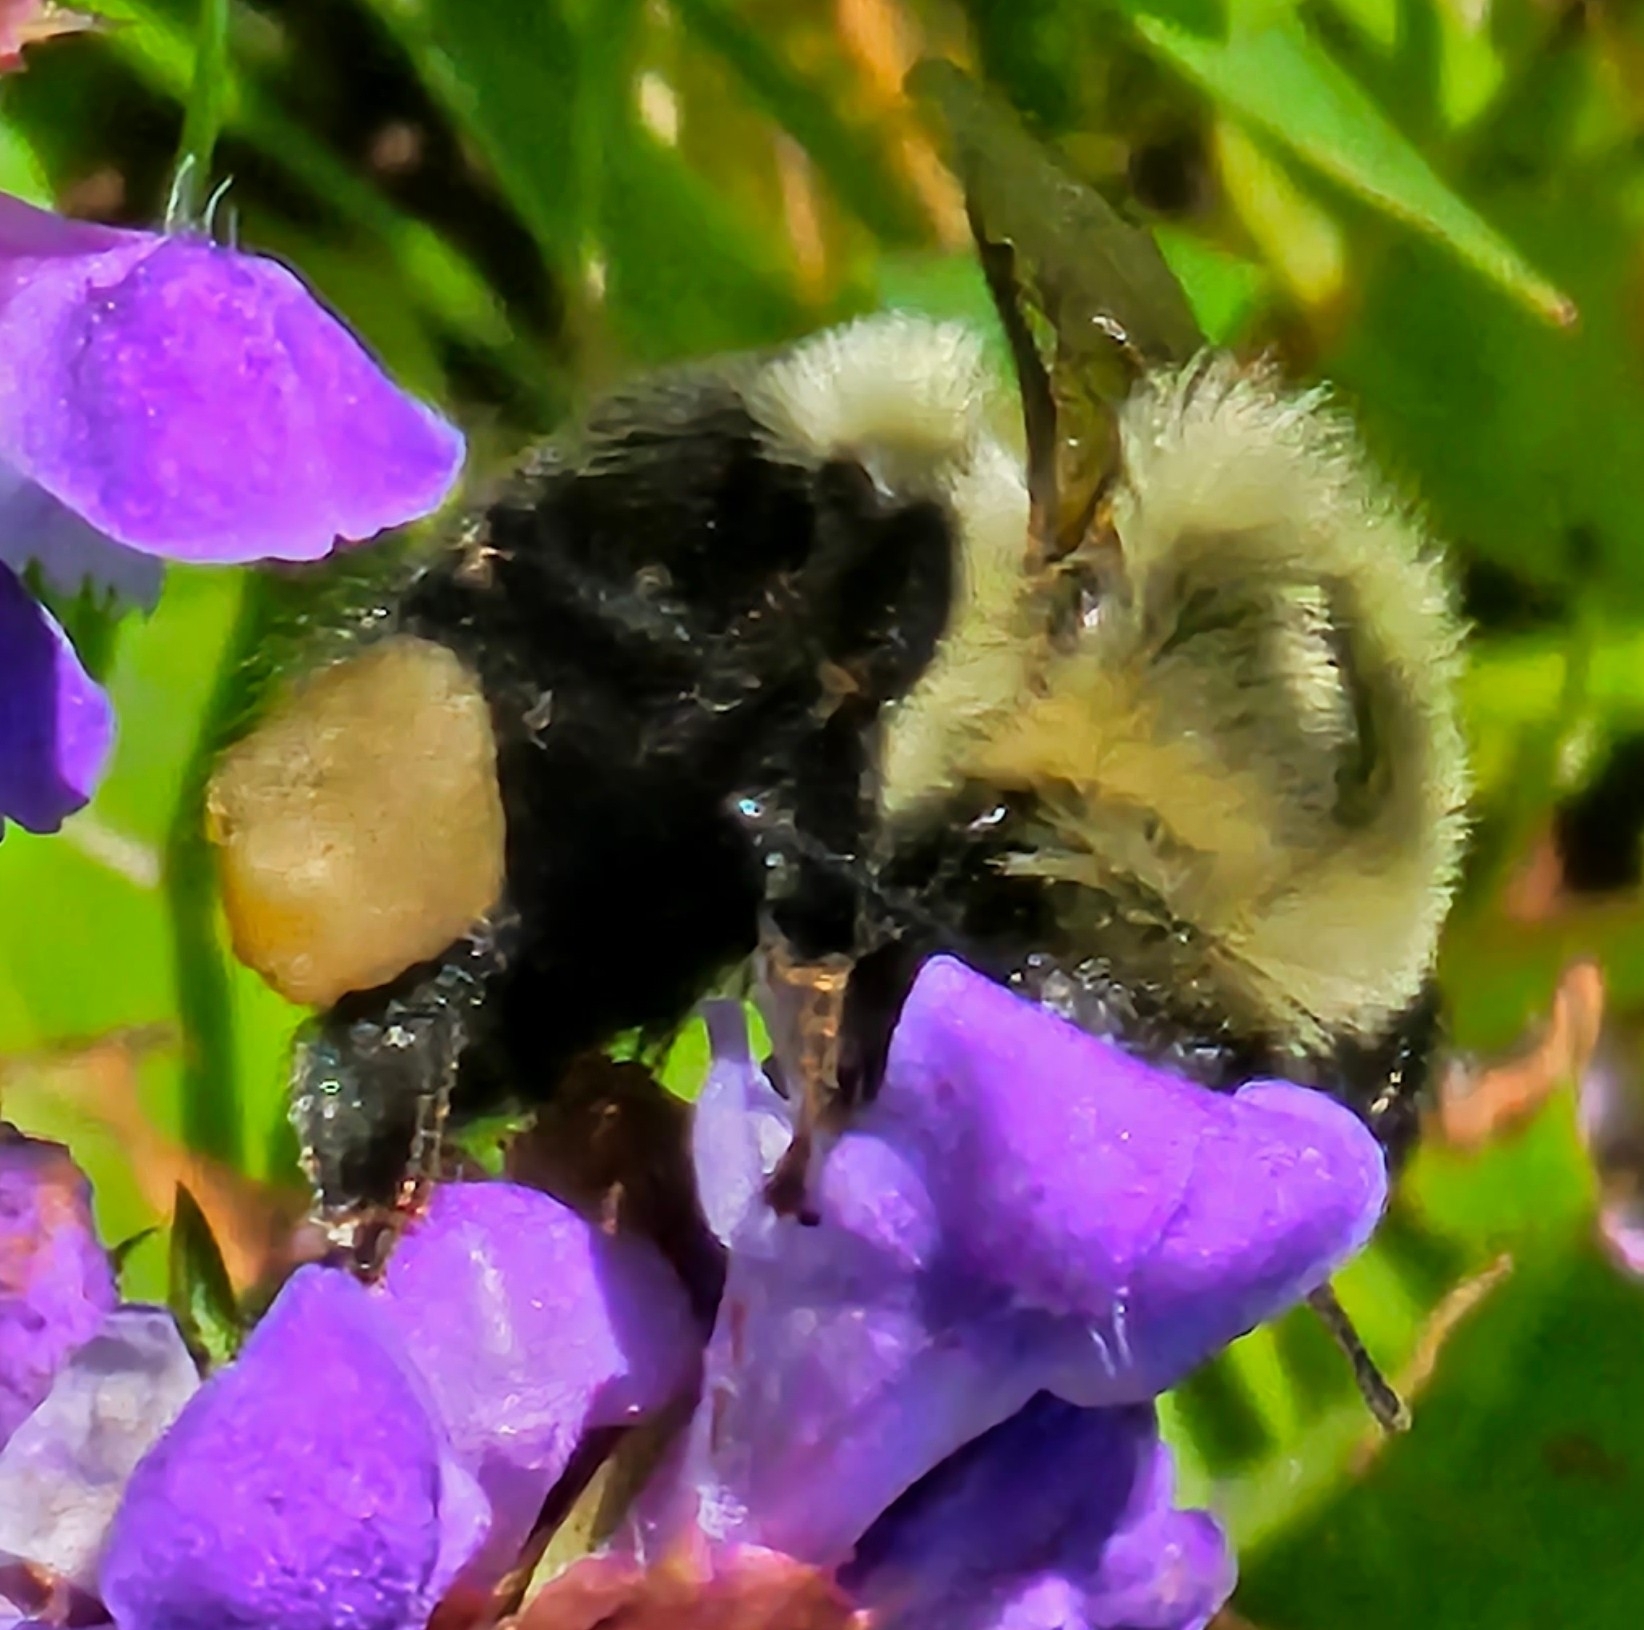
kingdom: Animalia
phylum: Arthropoda
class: Insecta
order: Hymenoptera
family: Apidae
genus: Bombus
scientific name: Bombus impatiens
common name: Common eastern bumble bee
